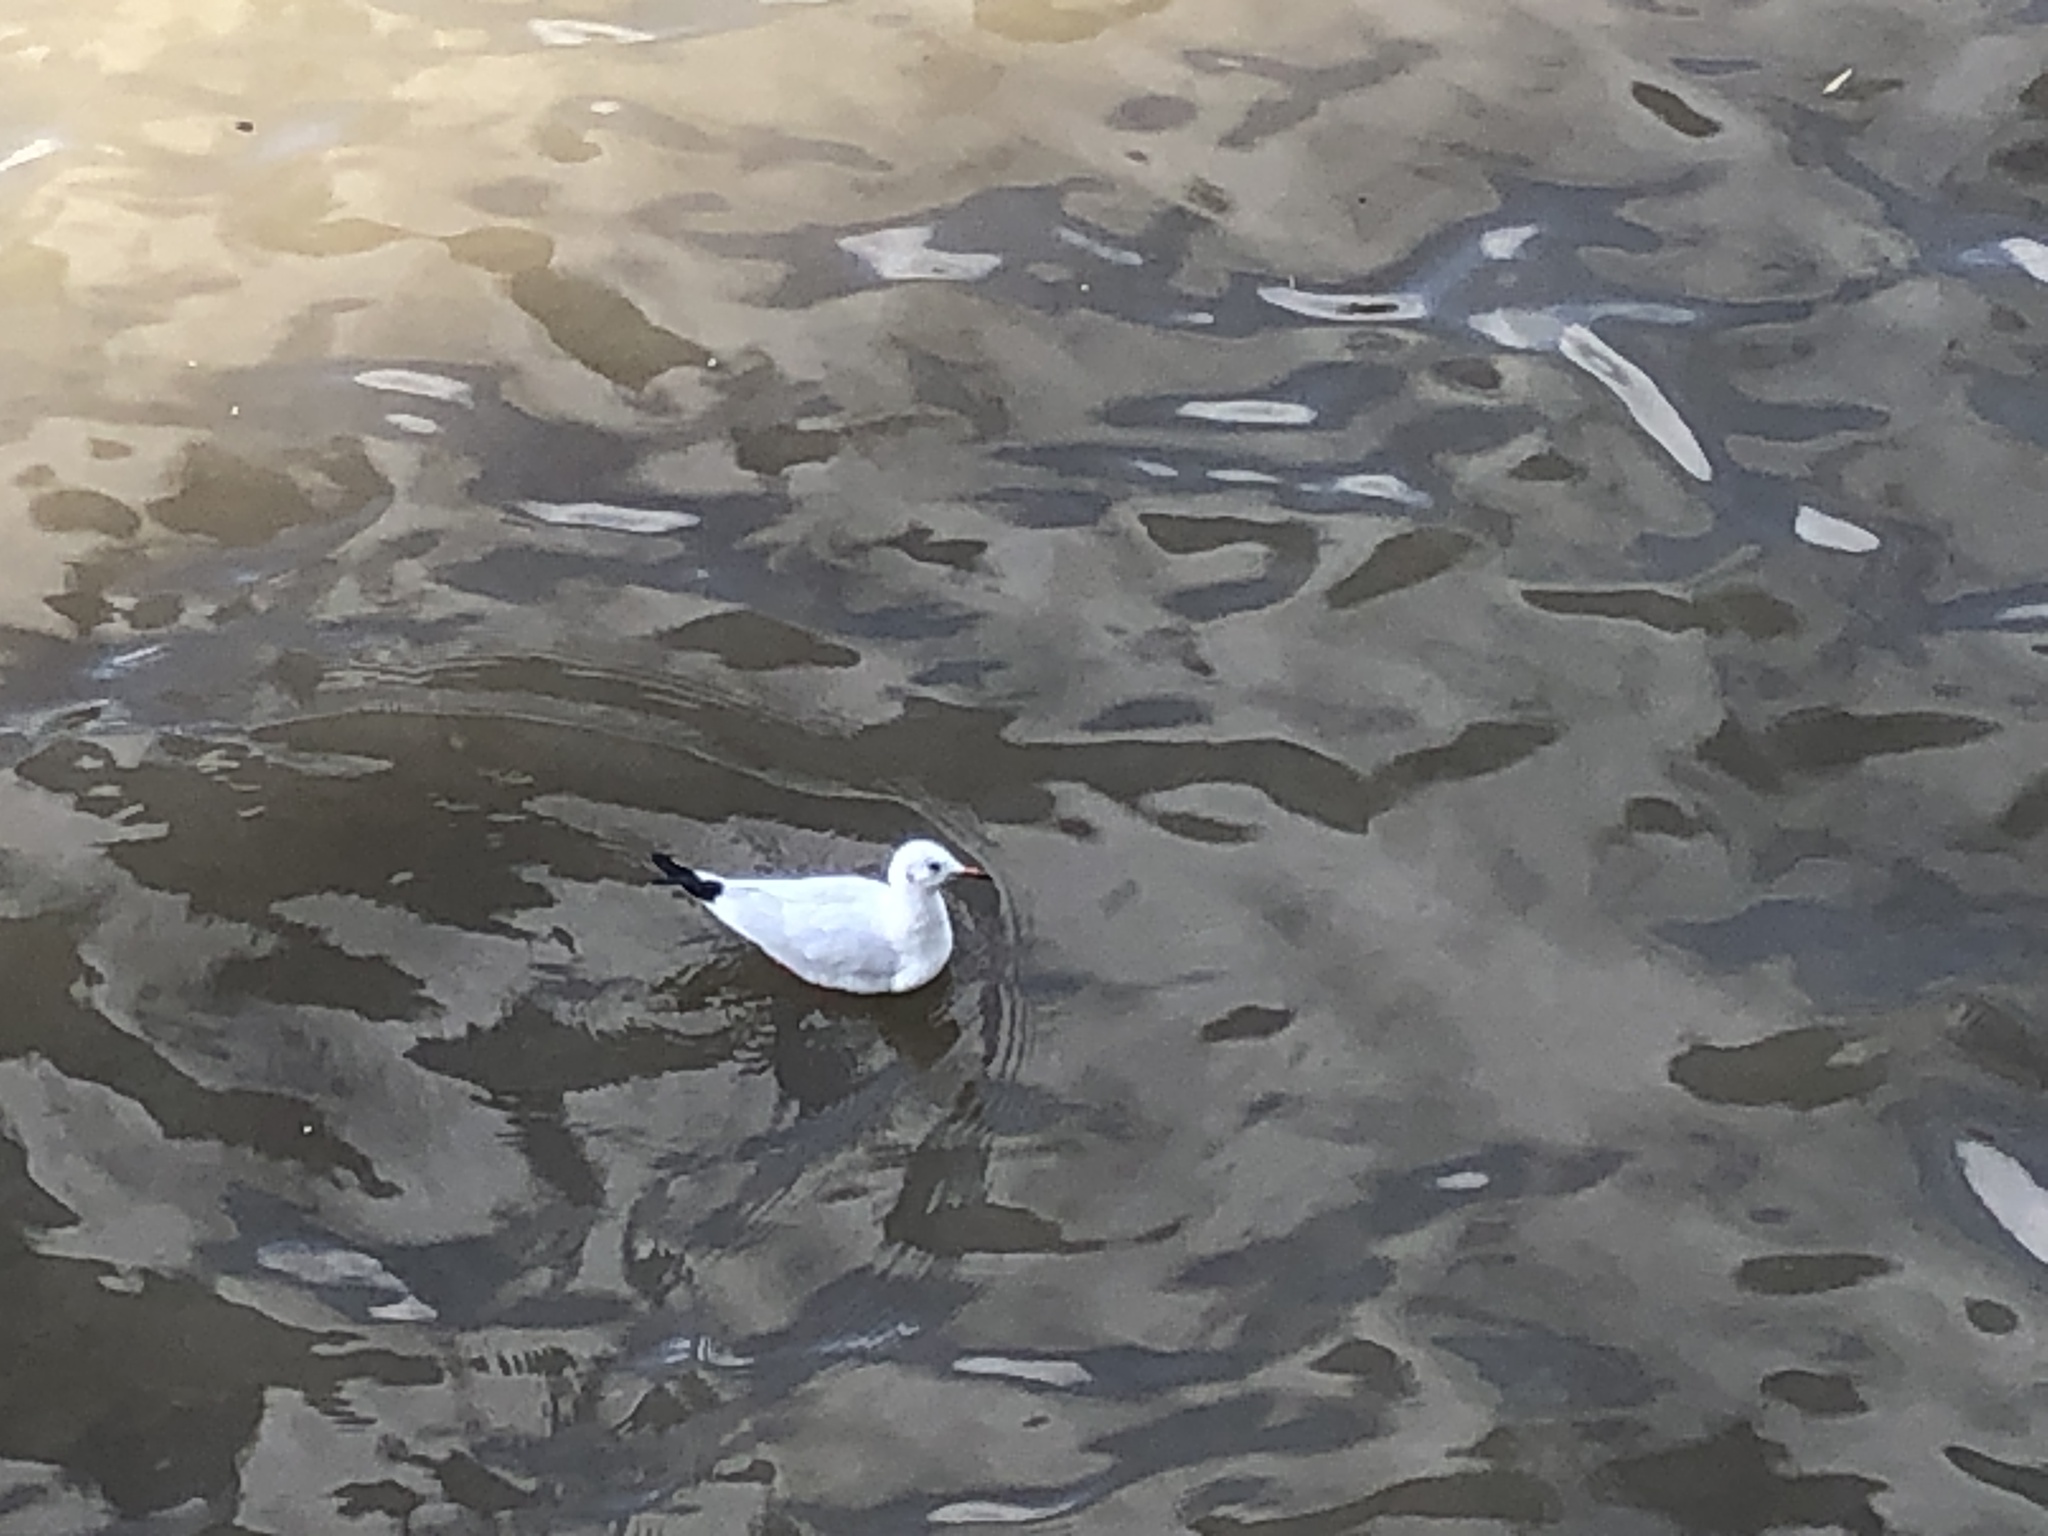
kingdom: Animalia
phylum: Chordata
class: Aves
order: Charadriiformes
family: Laridae
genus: Chroicocephalus
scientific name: Chroicocephalus ridibundus
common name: Black-headed gull
